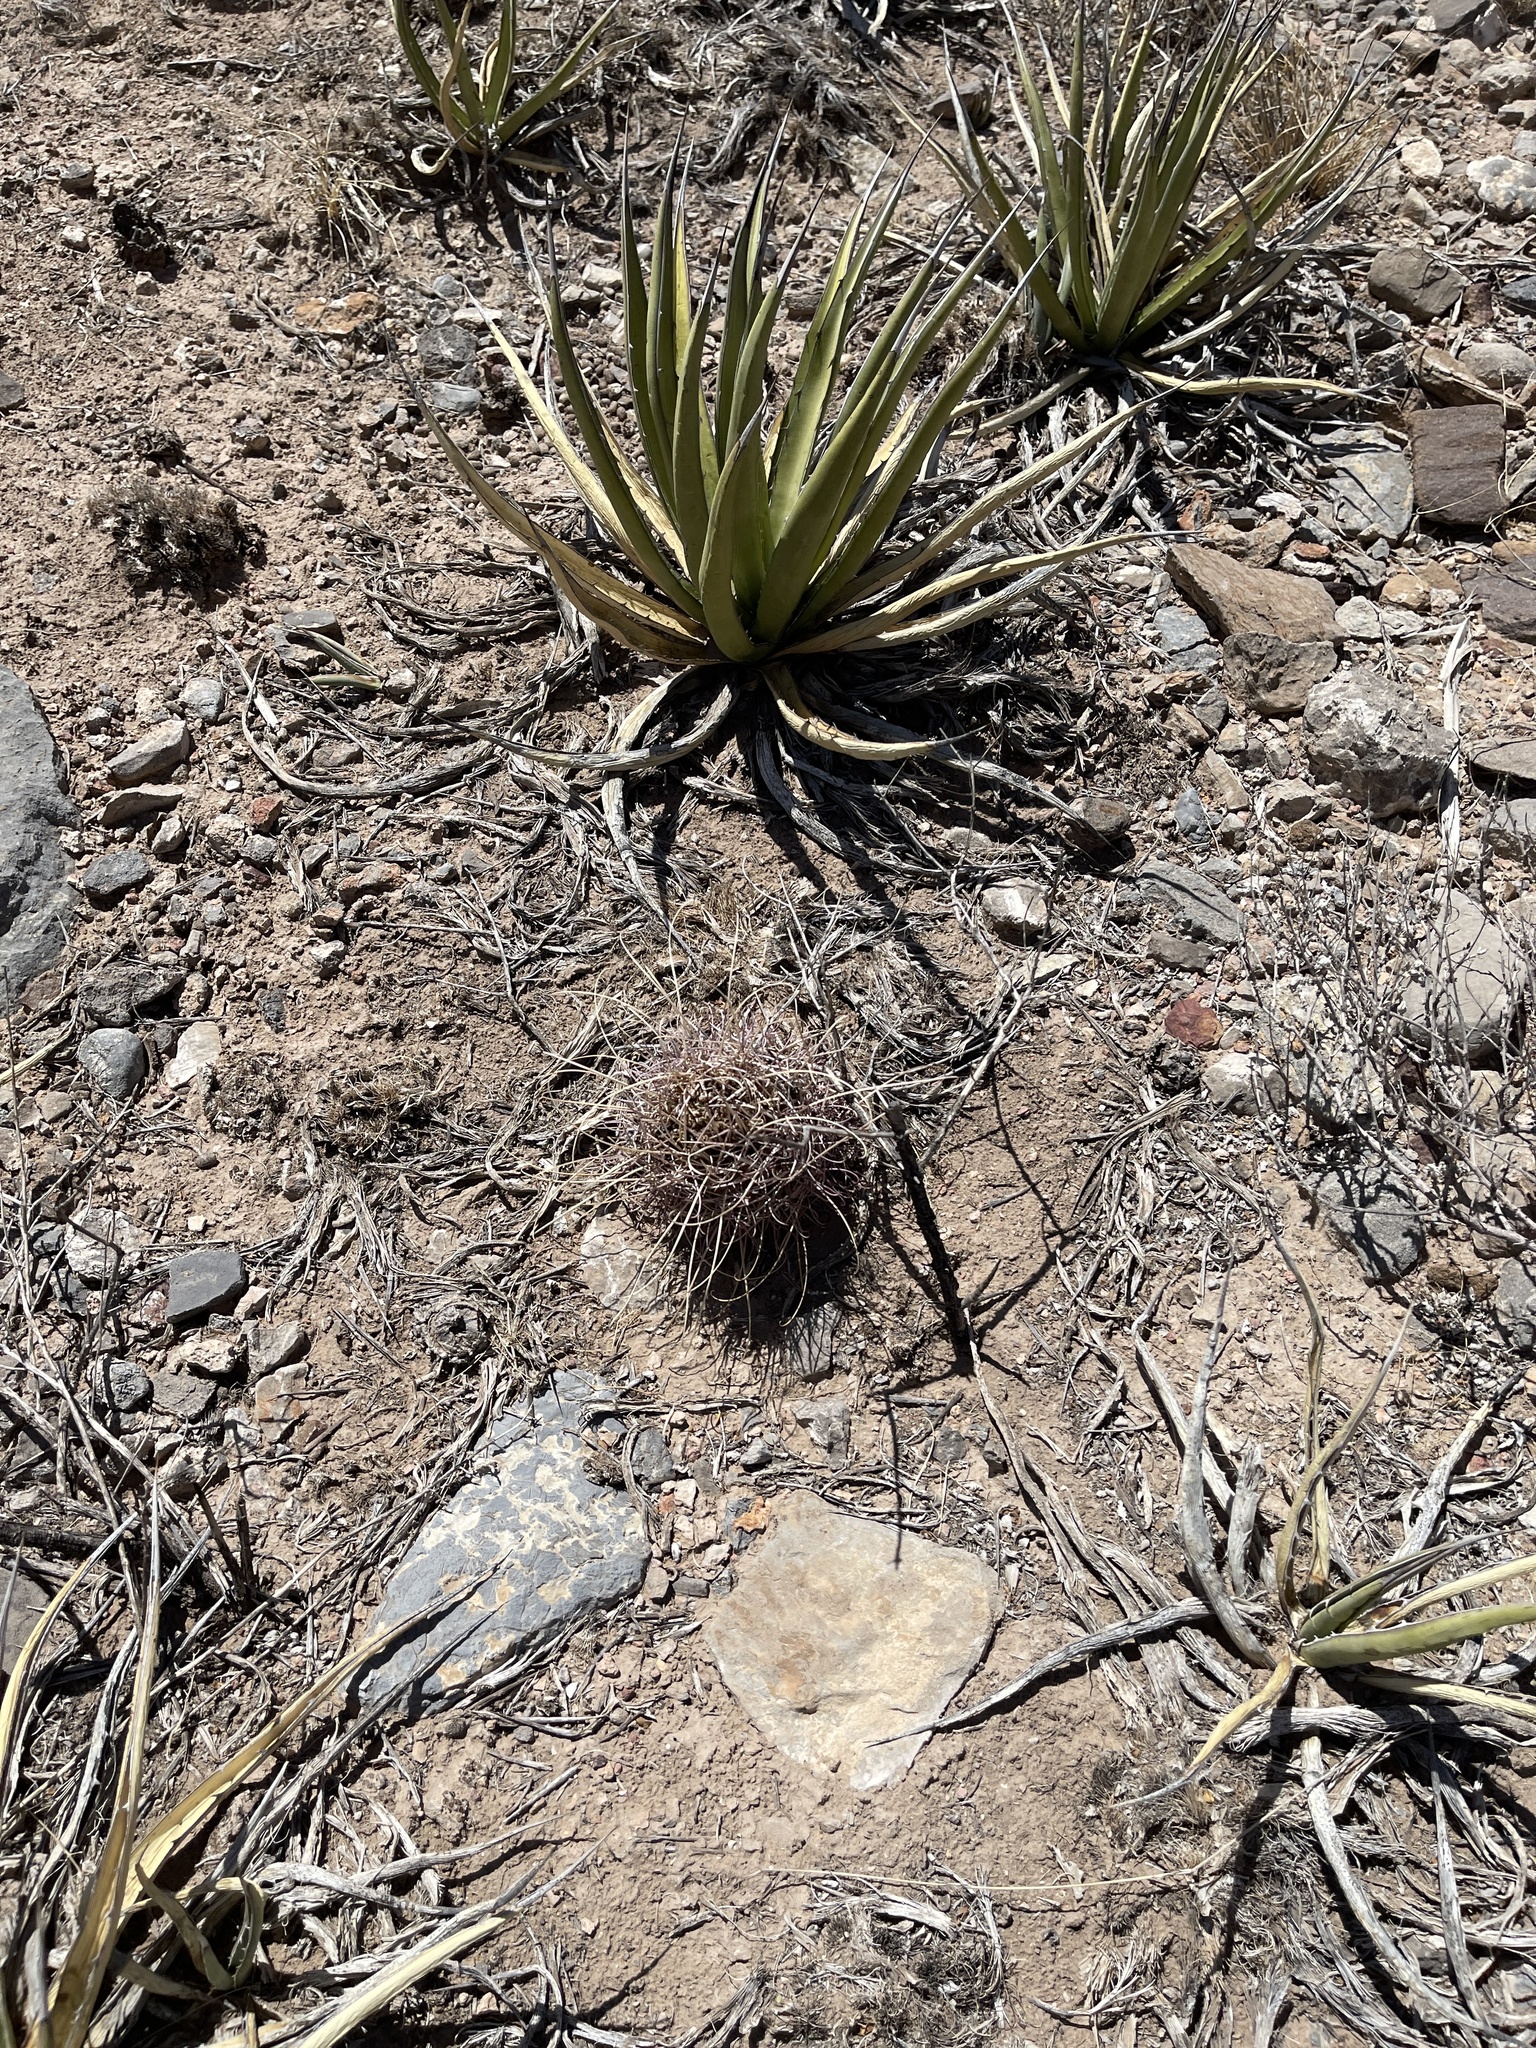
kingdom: Plantae
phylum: Tracheophyta
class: Magnoliopsida
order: Caryophyllales
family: Cactaceae
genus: Ferocactus
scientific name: Ferocactus uncinatus
